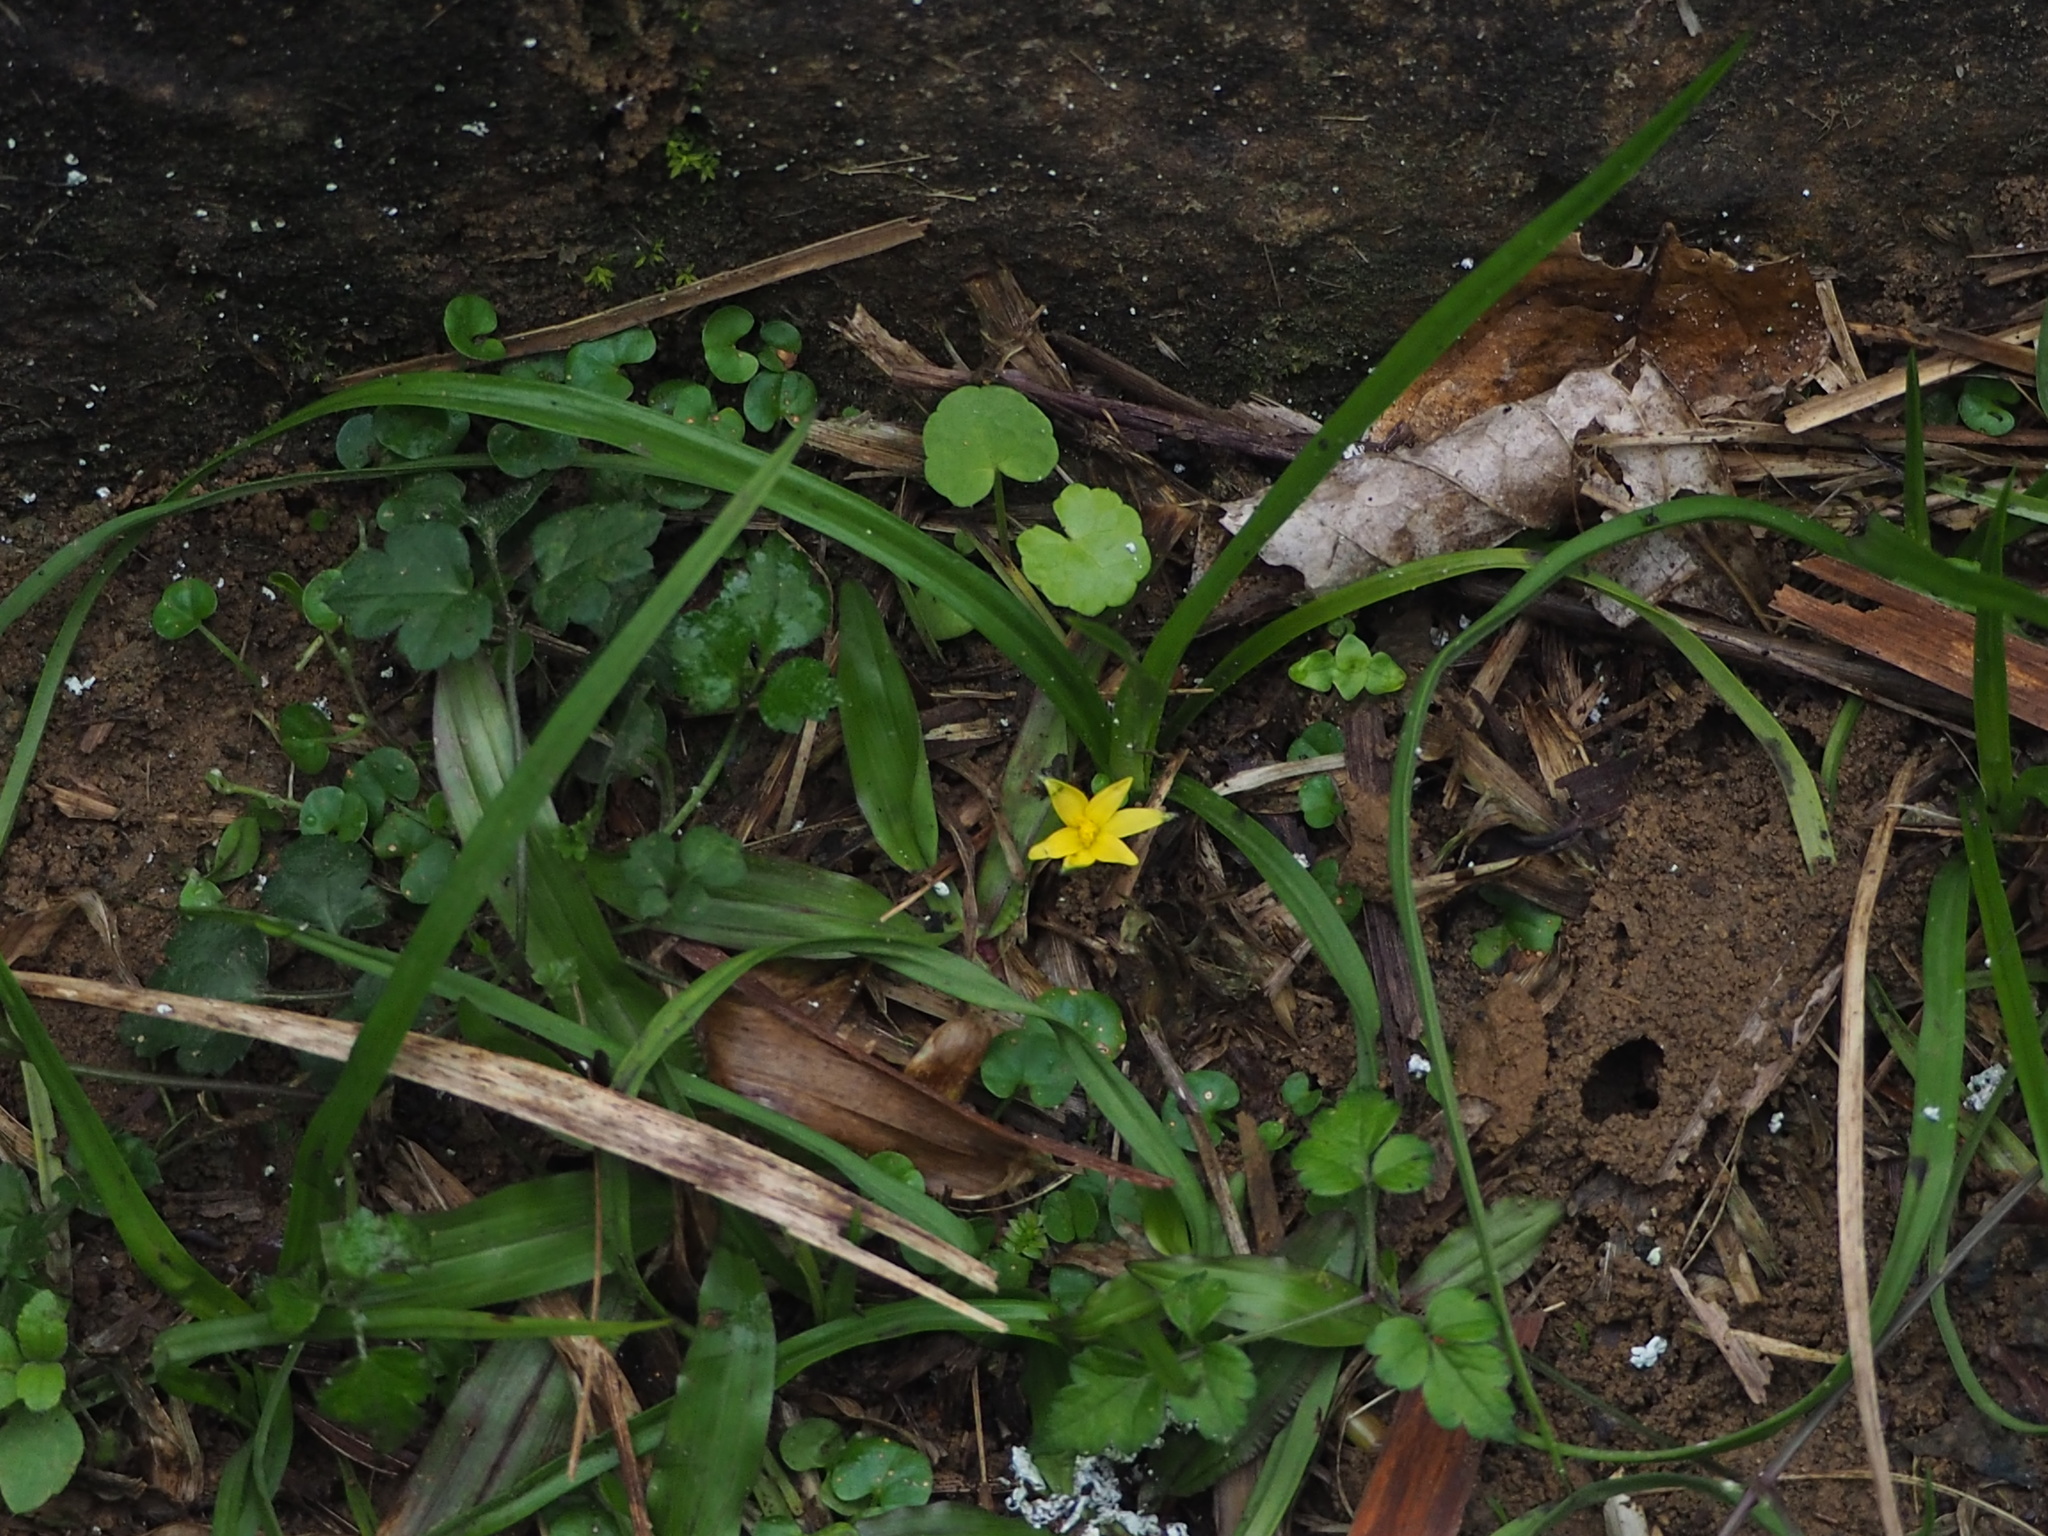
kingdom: Plantae
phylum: Tracheophyta
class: Liliopsida
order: Asparagales
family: Hypoxidaceae
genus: Hypoxis
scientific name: Hypoxis aurea
